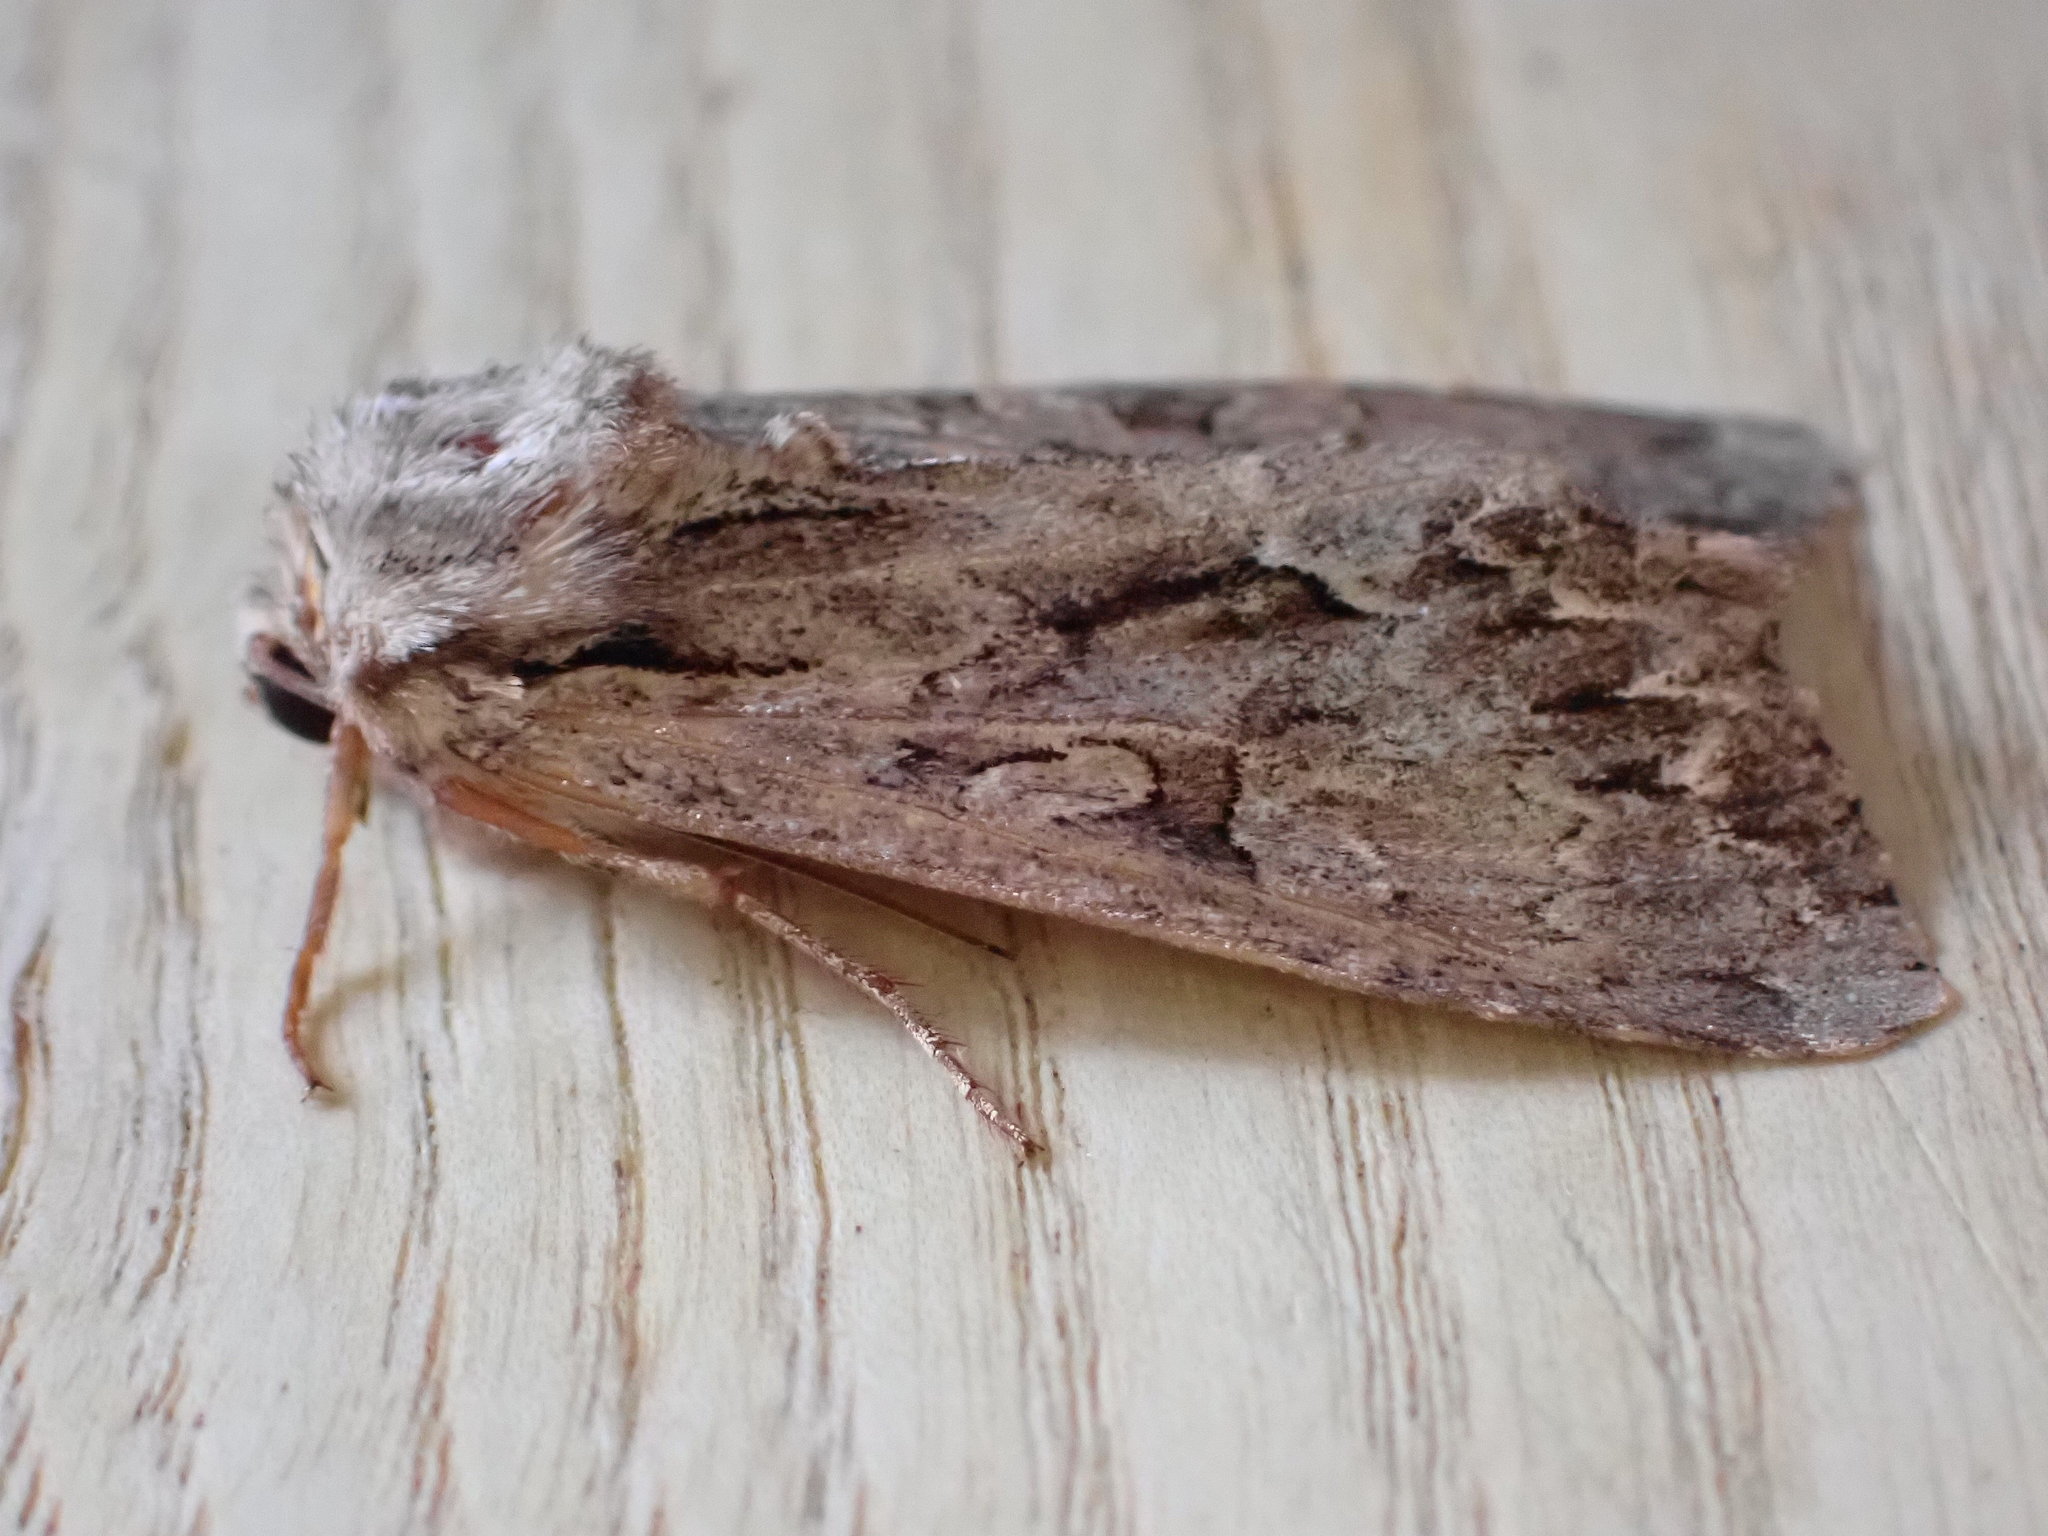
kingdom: Animalia
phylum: Arthropoda
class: Insecta
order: Lepidoptera
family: Noctuidae
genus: Apamea
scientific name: Apamea monoglypha
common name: Dark arches
